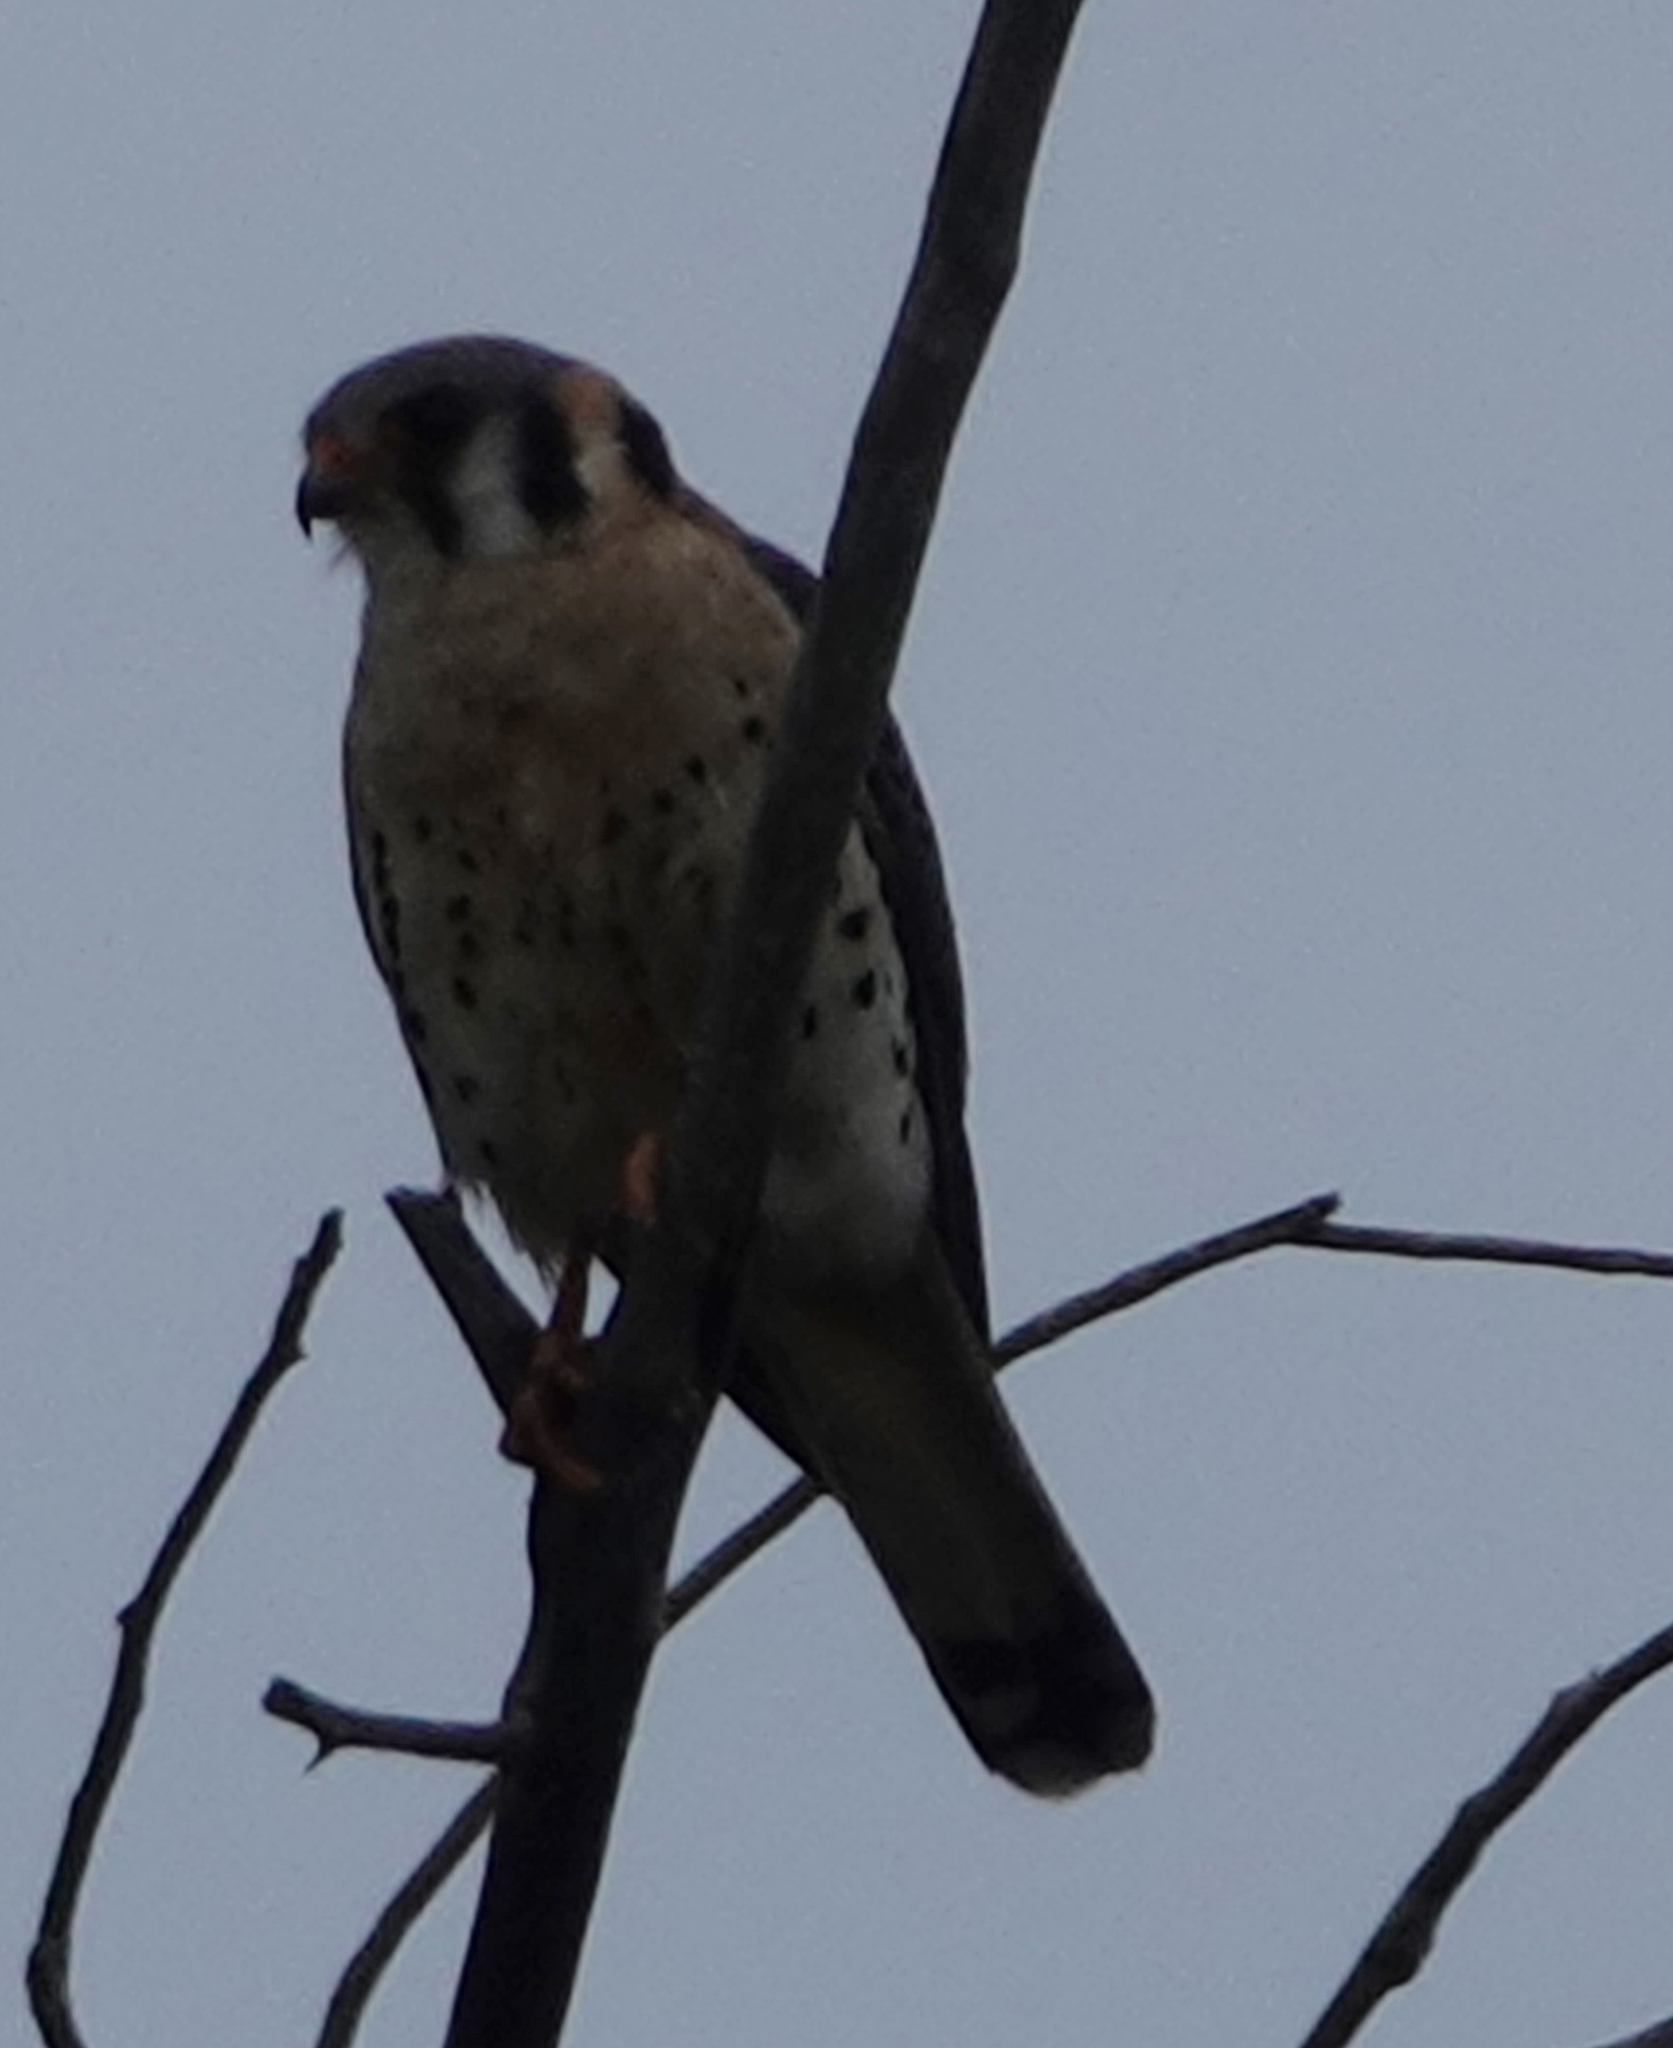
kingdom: Animalia
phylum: Chordata
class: Aves
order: Falconiformes
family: Falconidae
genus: Falco
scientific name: Falco sparverius
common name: American kestrel
